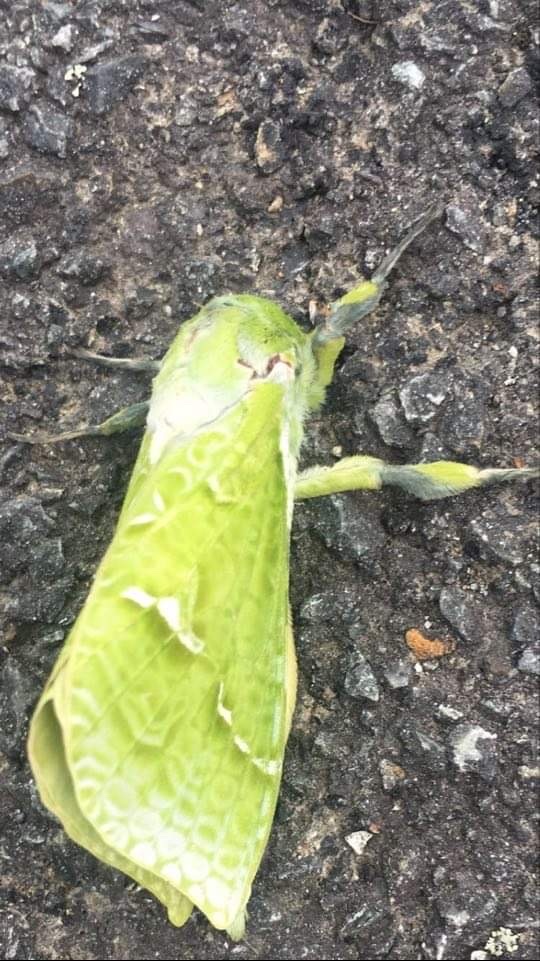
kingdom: Animalia
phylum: Arthropoda
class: Insecta
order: Lepidoptera
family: Hepialidae
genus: Aenetus
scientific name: Aenetus virescens
